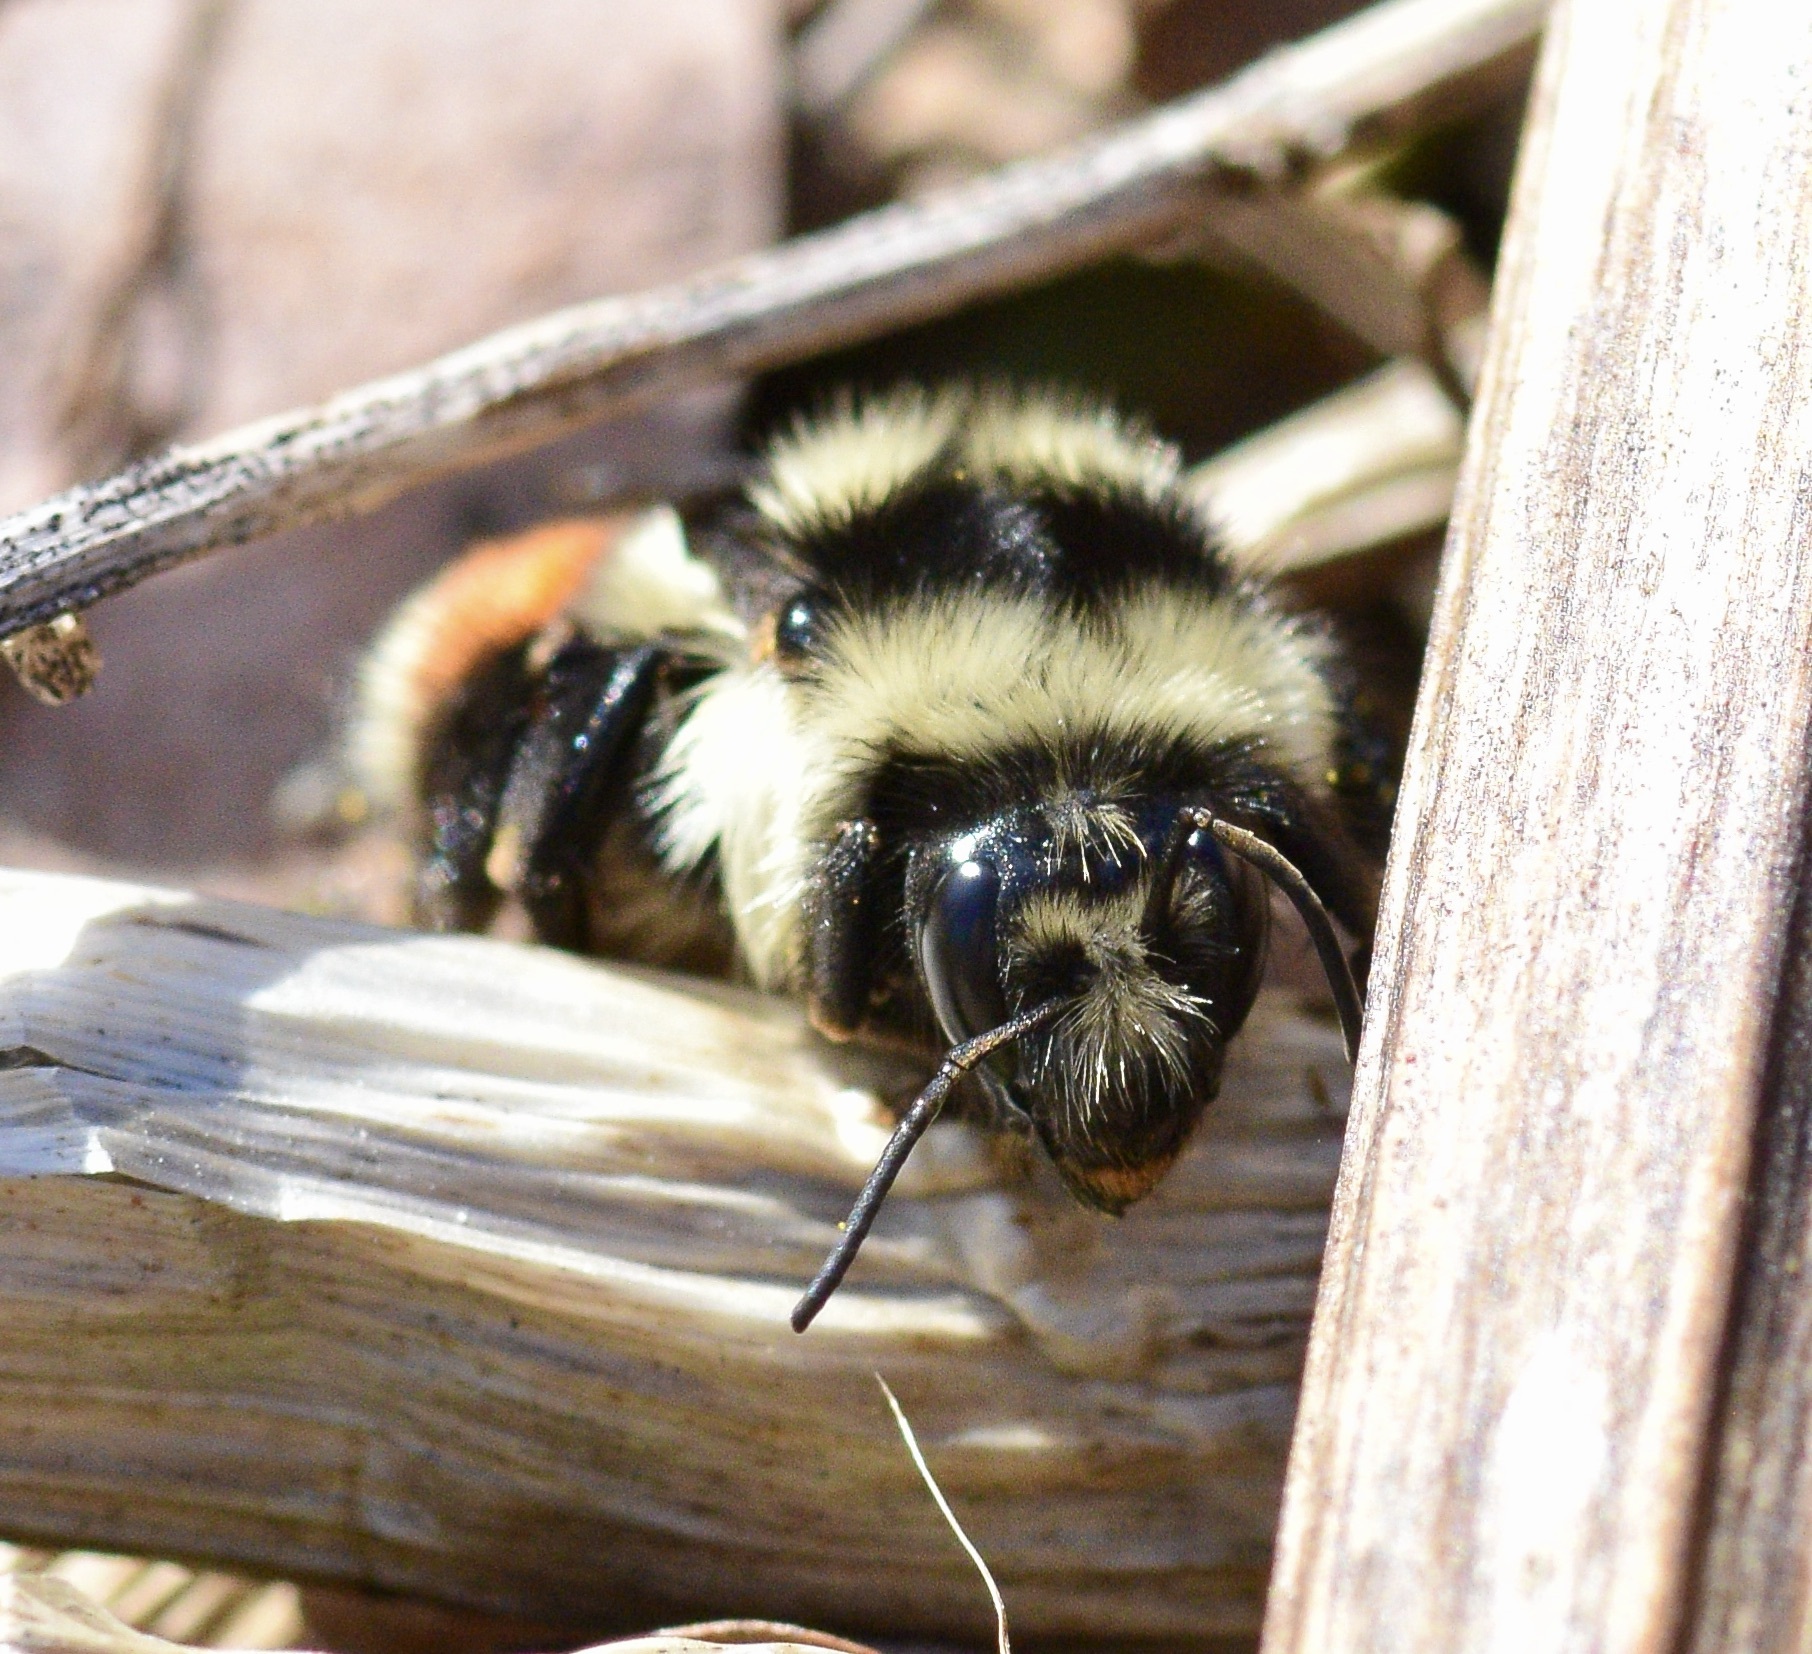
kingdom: Animalia
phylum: Arthropoda
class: Insecta
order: Hymenoptera
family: Apidae
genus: Bombus
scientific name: Bombus ternarius
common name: Tri-colored bumble bee
